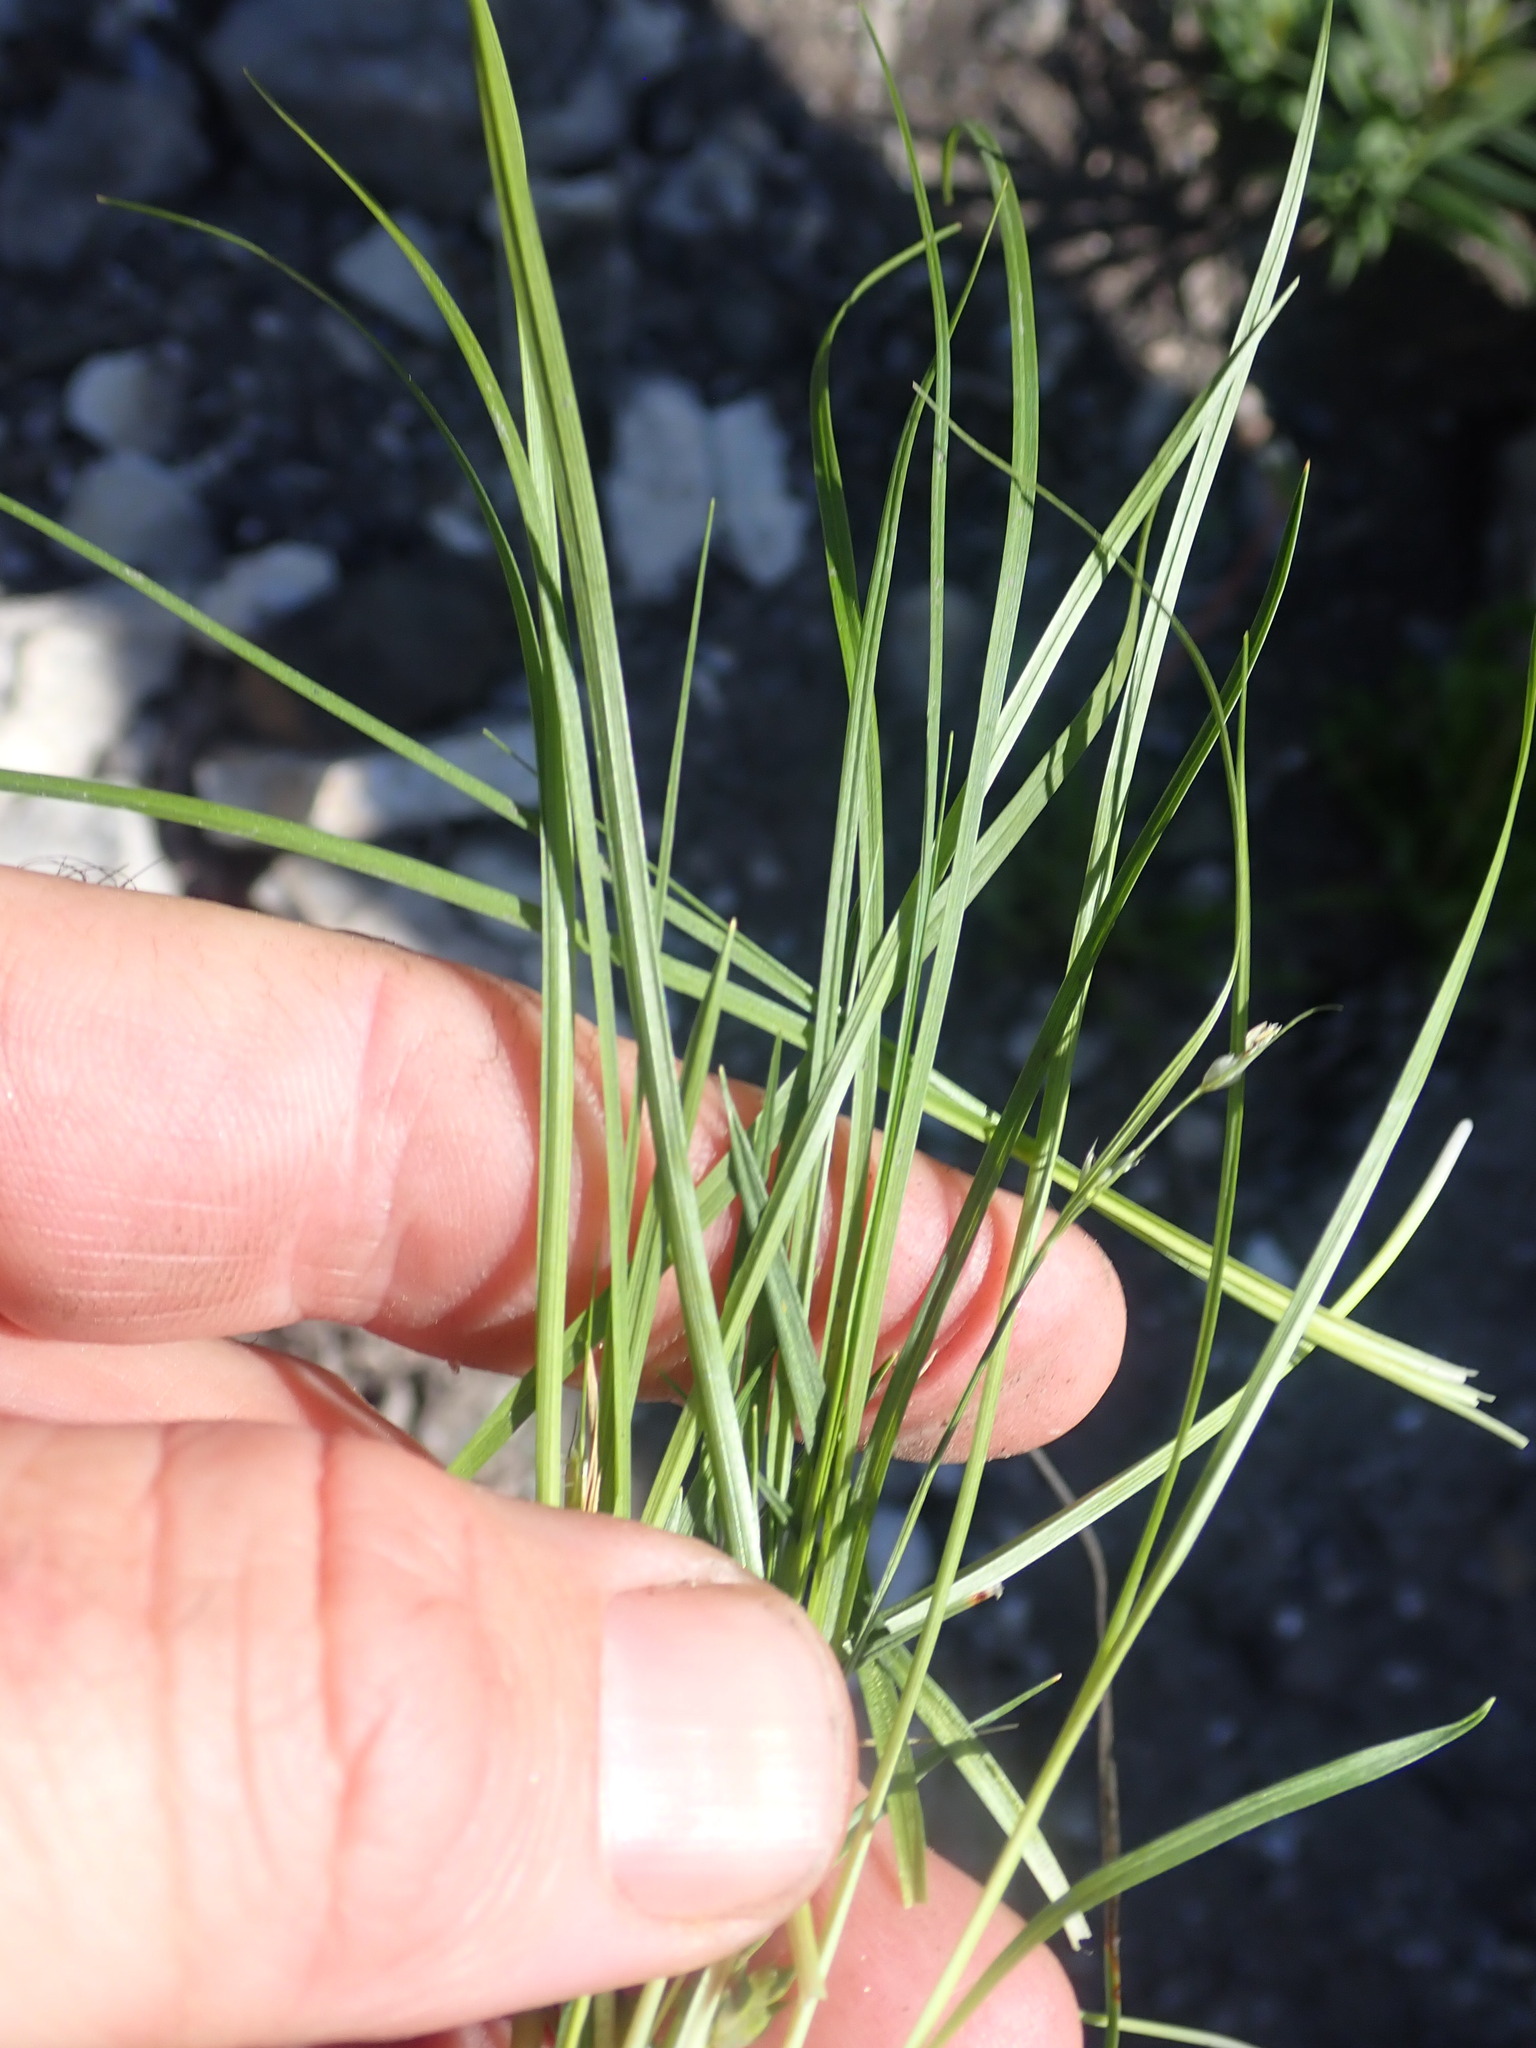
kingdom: Plantae
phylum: Tracheophyta
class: Liliopsida
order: Poales
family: Cyperaceae
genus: Carex
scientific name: Carex rossii
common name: Ross' sedge
